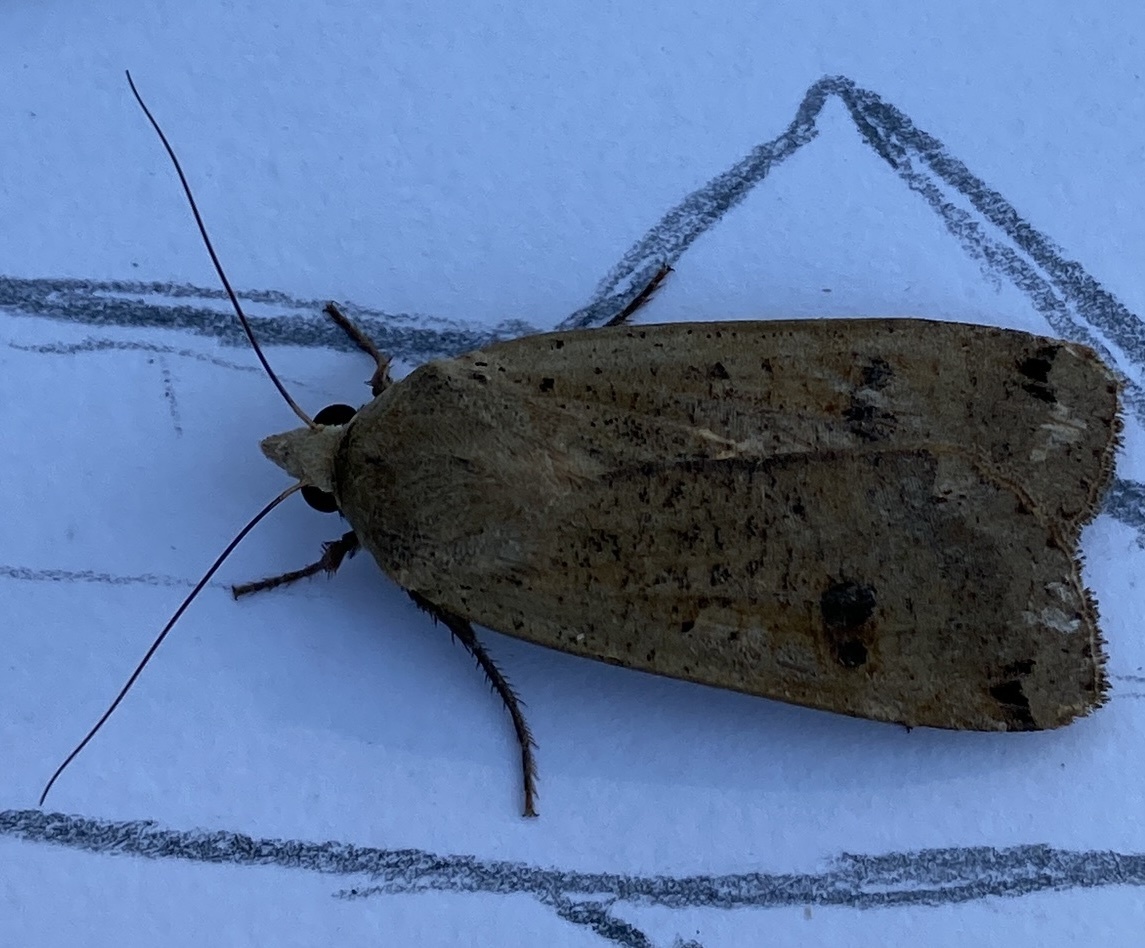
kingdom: Animalia
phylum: Arthropoda
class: Insecta
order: Lepidoptera
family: Noctuidae
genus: Noctua
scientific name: Noctua pronuba
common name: Large yellow underwing
